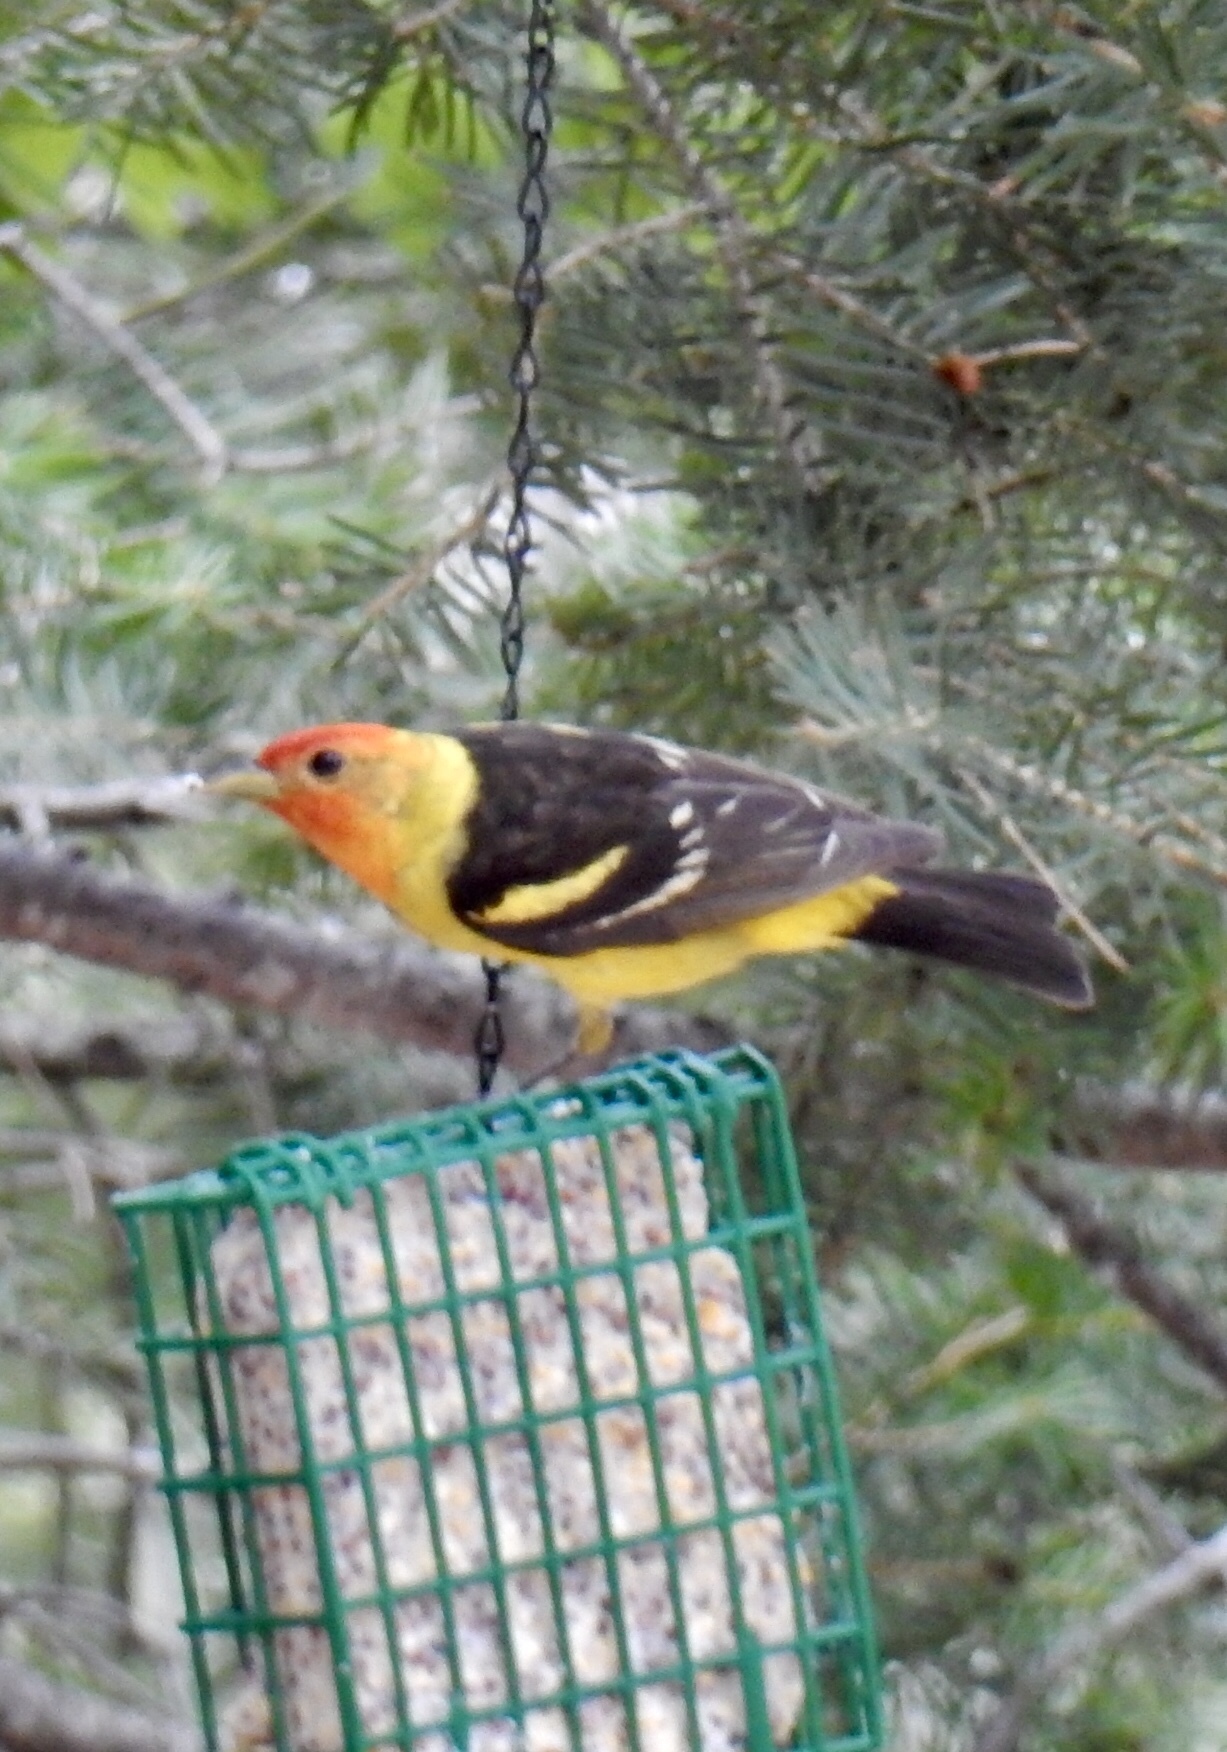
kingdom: Animalia
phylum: Chordata
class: Aves
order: Passeriformes
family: Cardinalidae
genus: Piranga
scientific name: Piranga ludoviciana
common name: Western tanager
